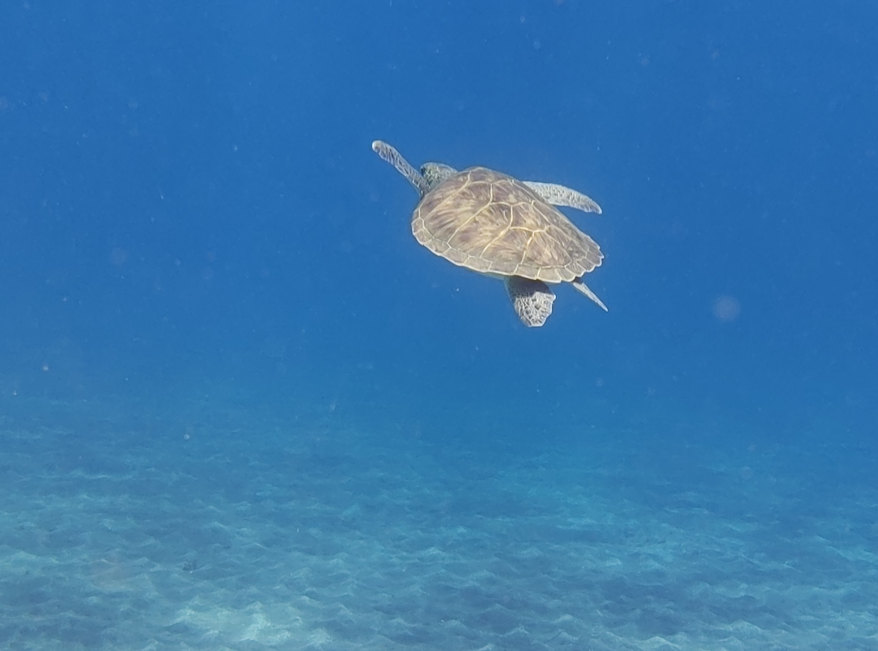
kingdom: Animalia
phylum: Chordata
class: Testudines
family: Cheloniidae
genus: Chelonia
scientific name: Chelonia mydas
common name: Green turtle
